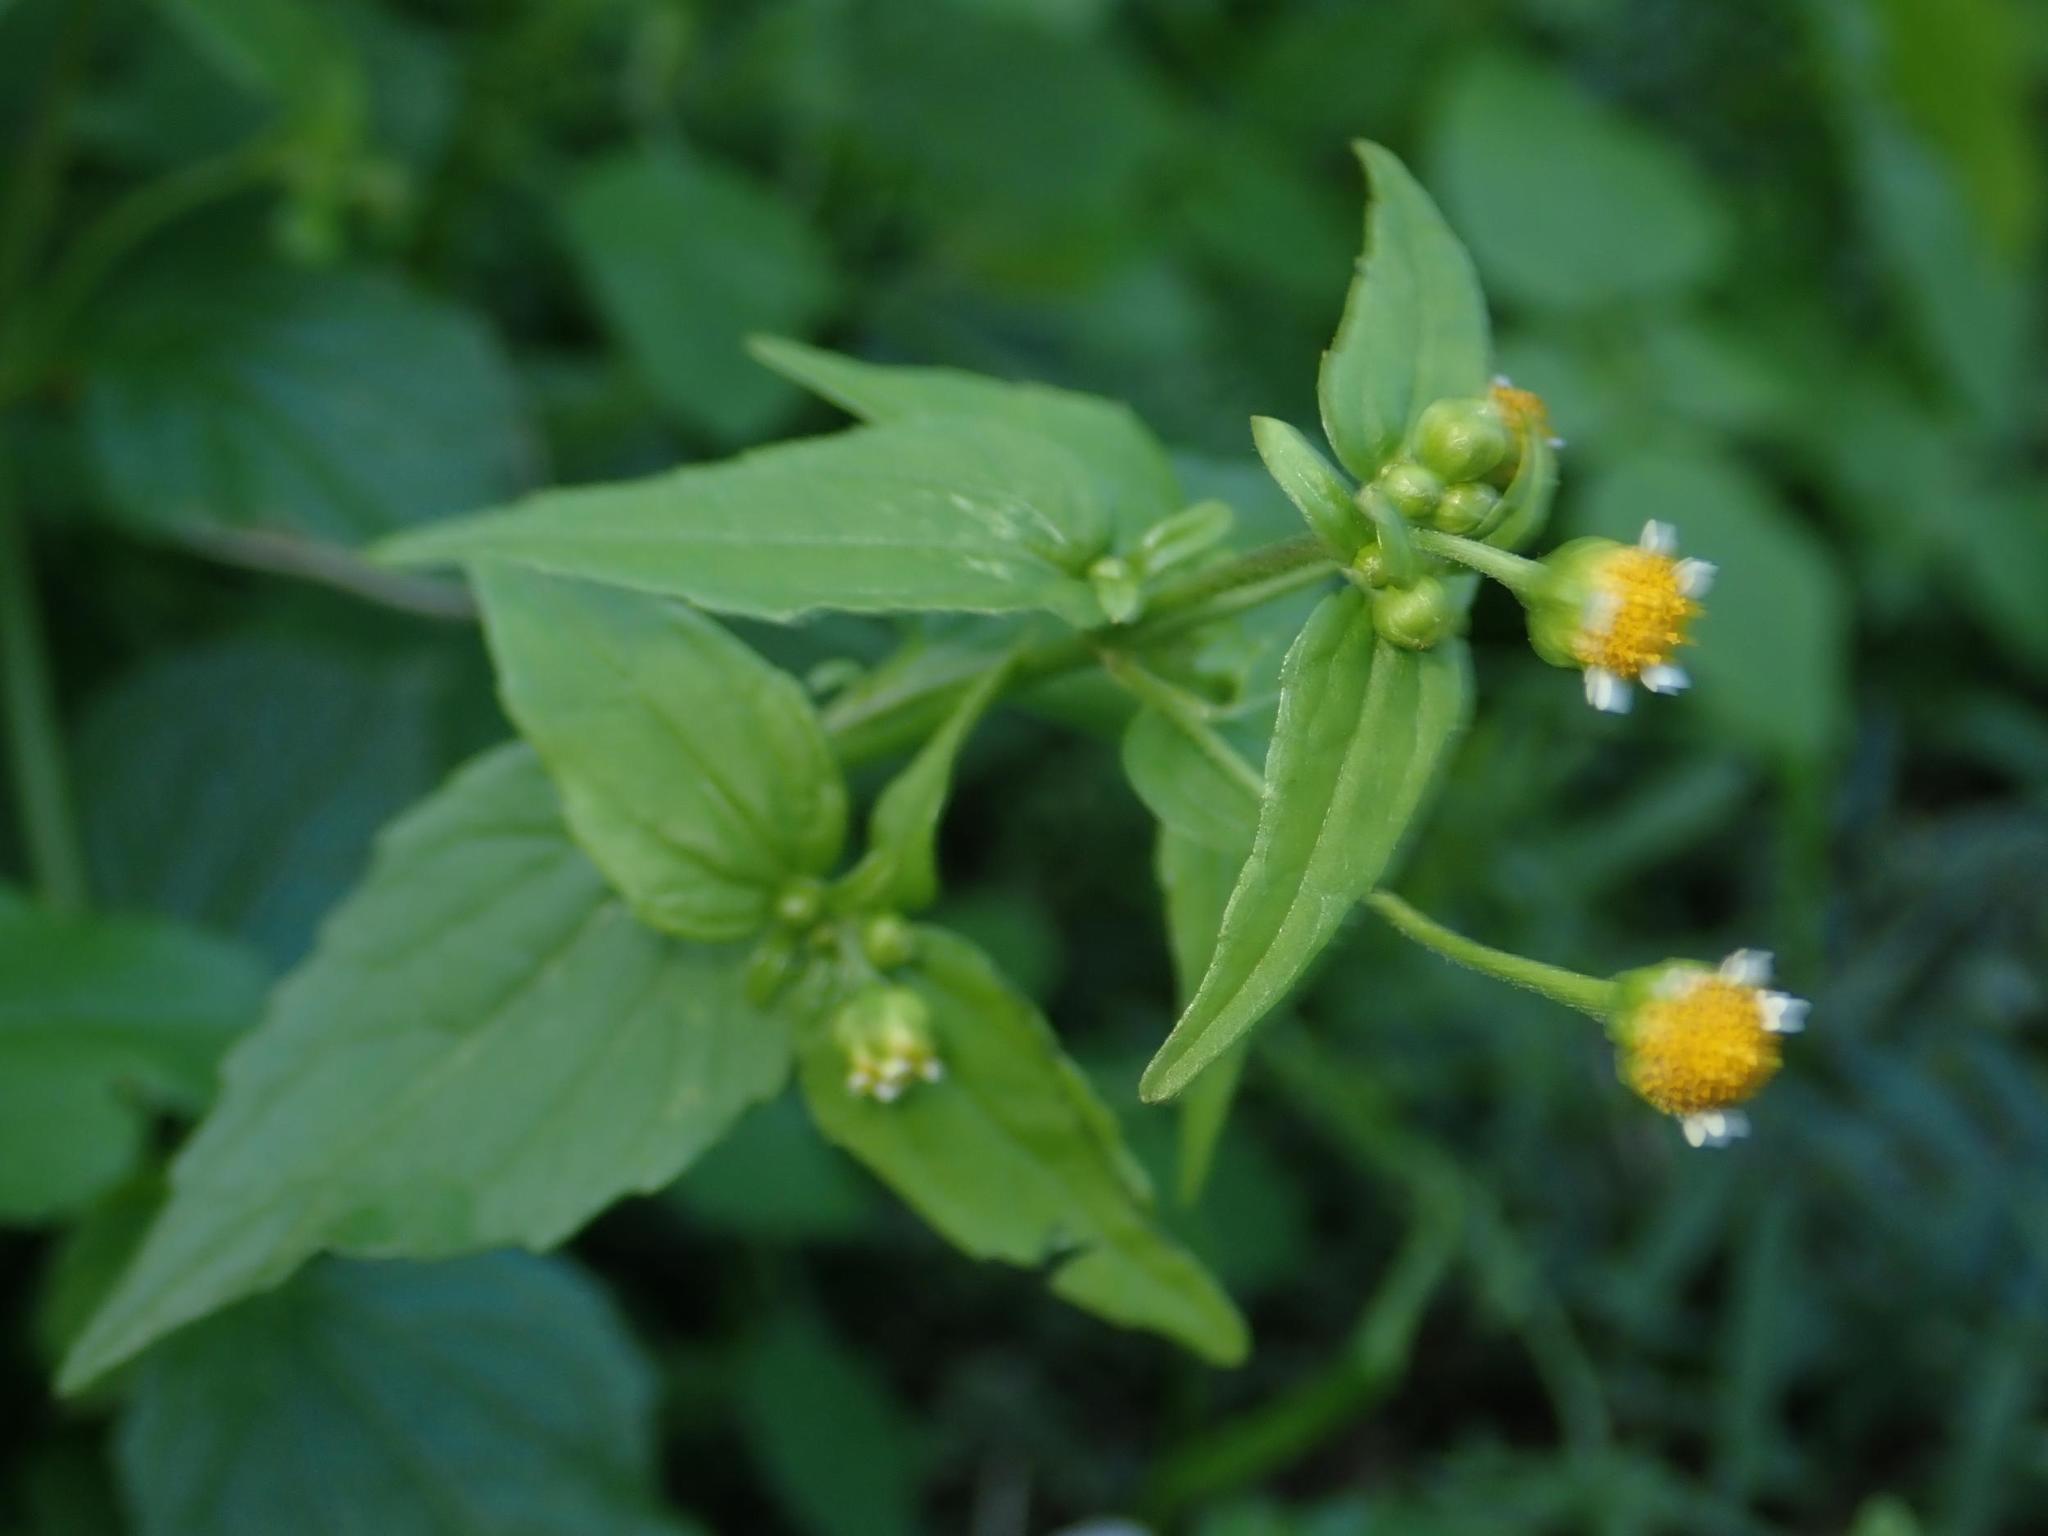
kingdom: Plantae
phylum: Tracheophyta
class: Magnoliopsida
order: Asterales
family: Asteraceae
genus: Galinsoga
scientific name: Galinsoga parviflora
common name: Gallant soldier
